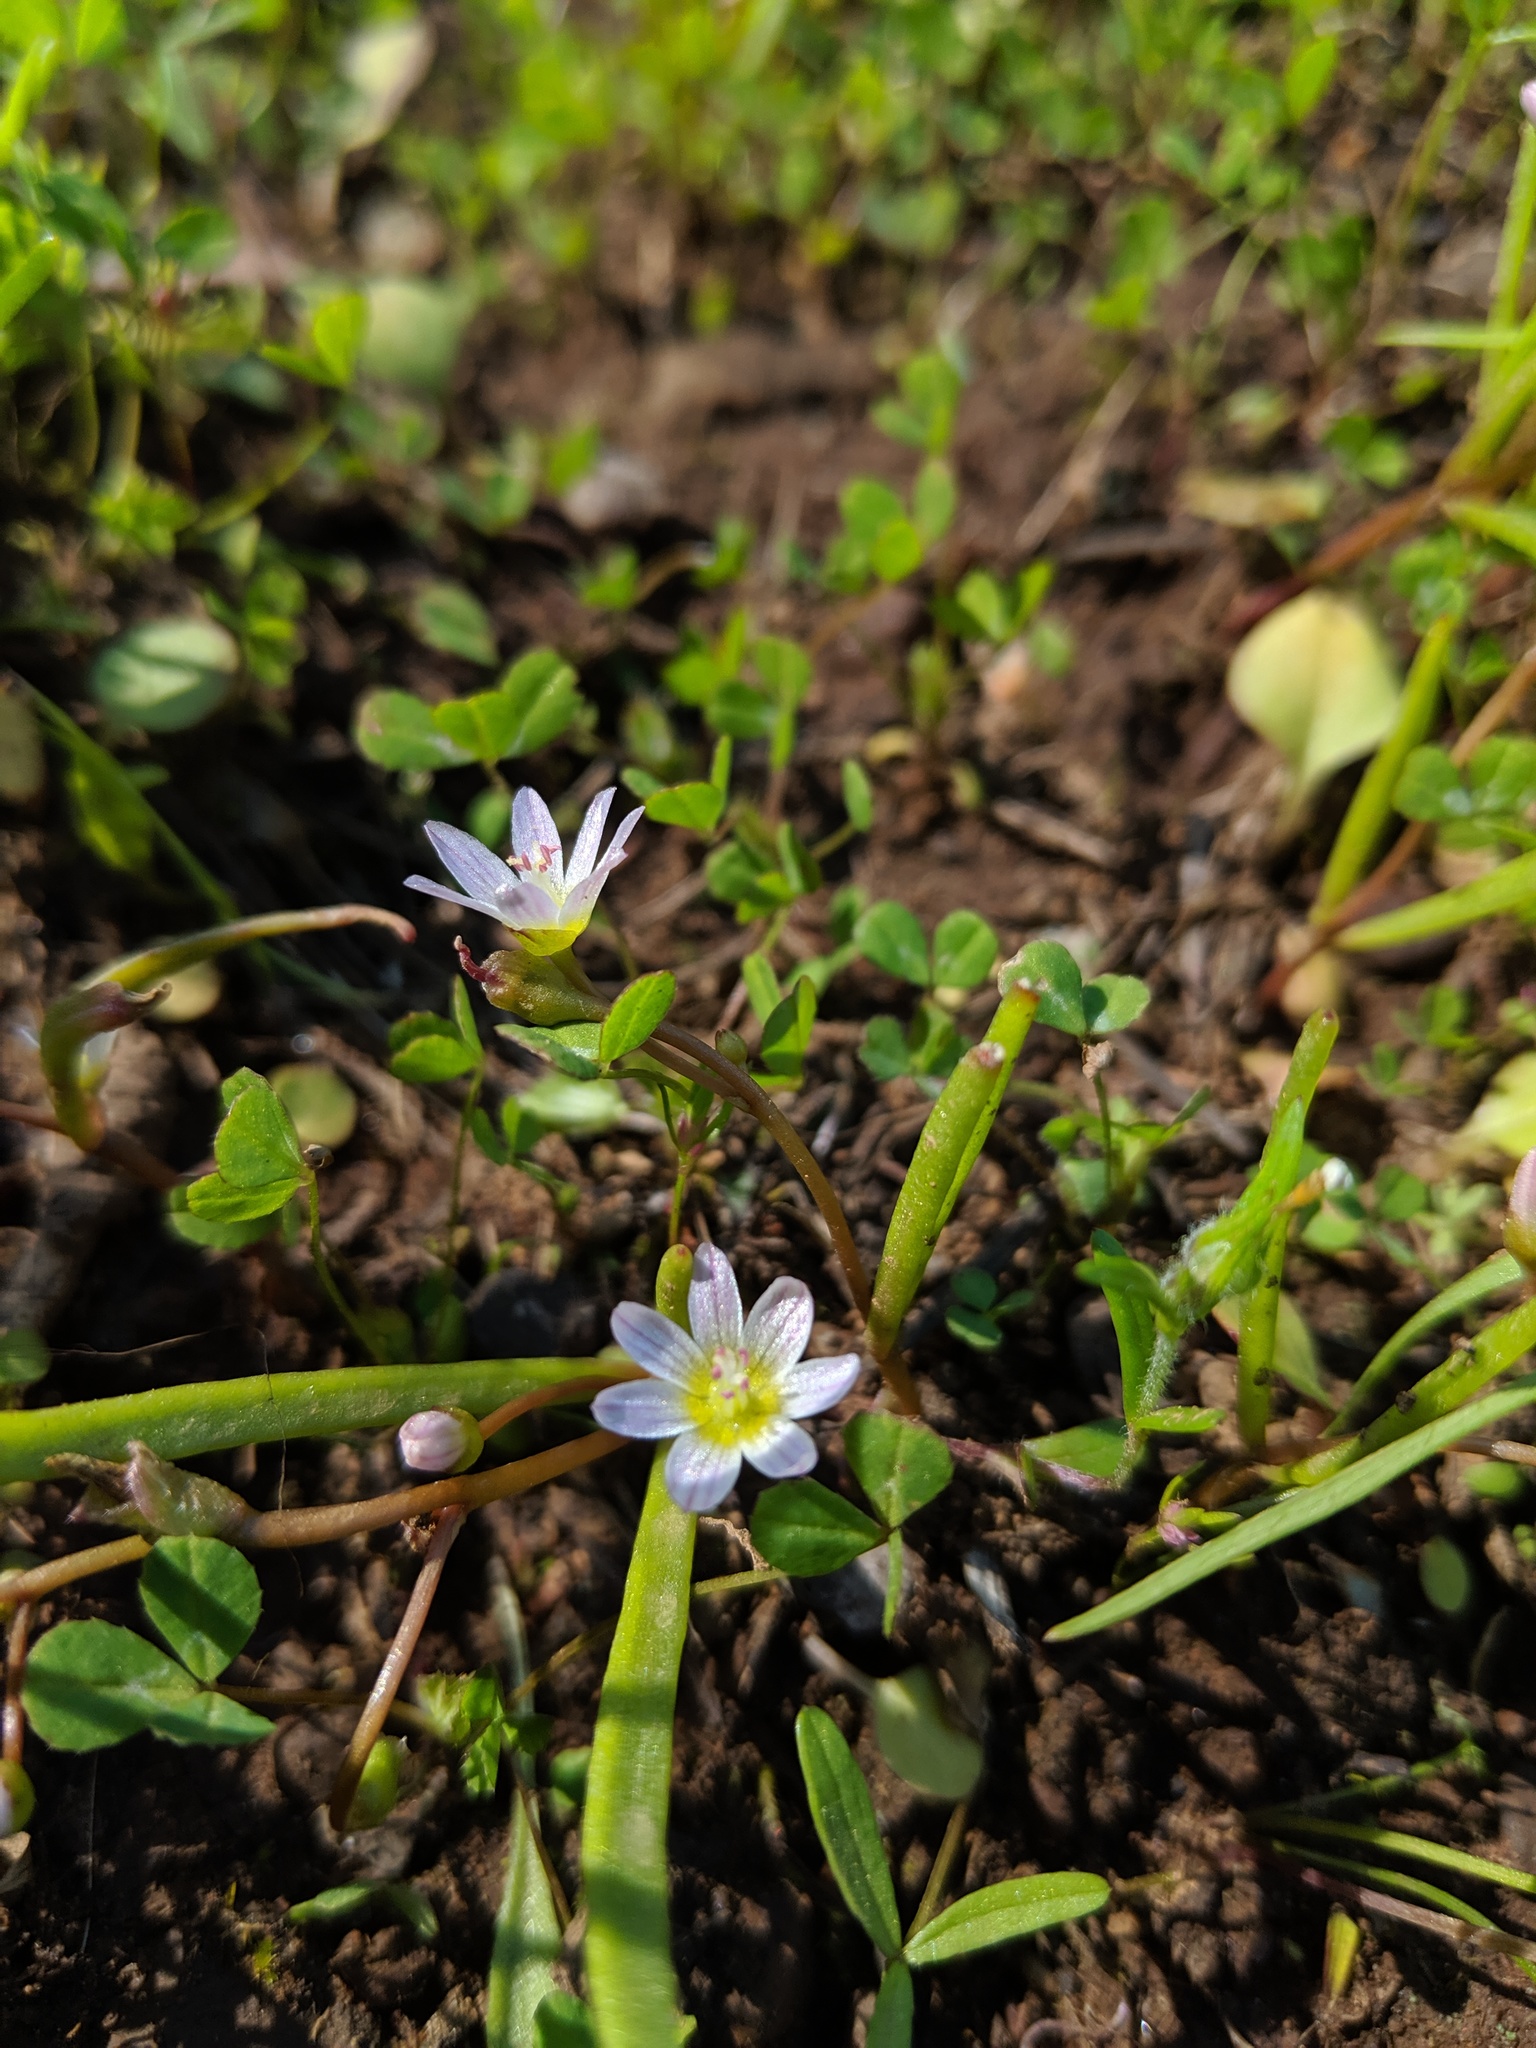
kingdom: Plantae
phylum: Tracheophyta
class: Magnoliopsida
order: Caryophyllales
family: Montiaceae
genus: Lewisia
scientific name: Lewisia triphylla
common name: Three-leaved bitterroot
